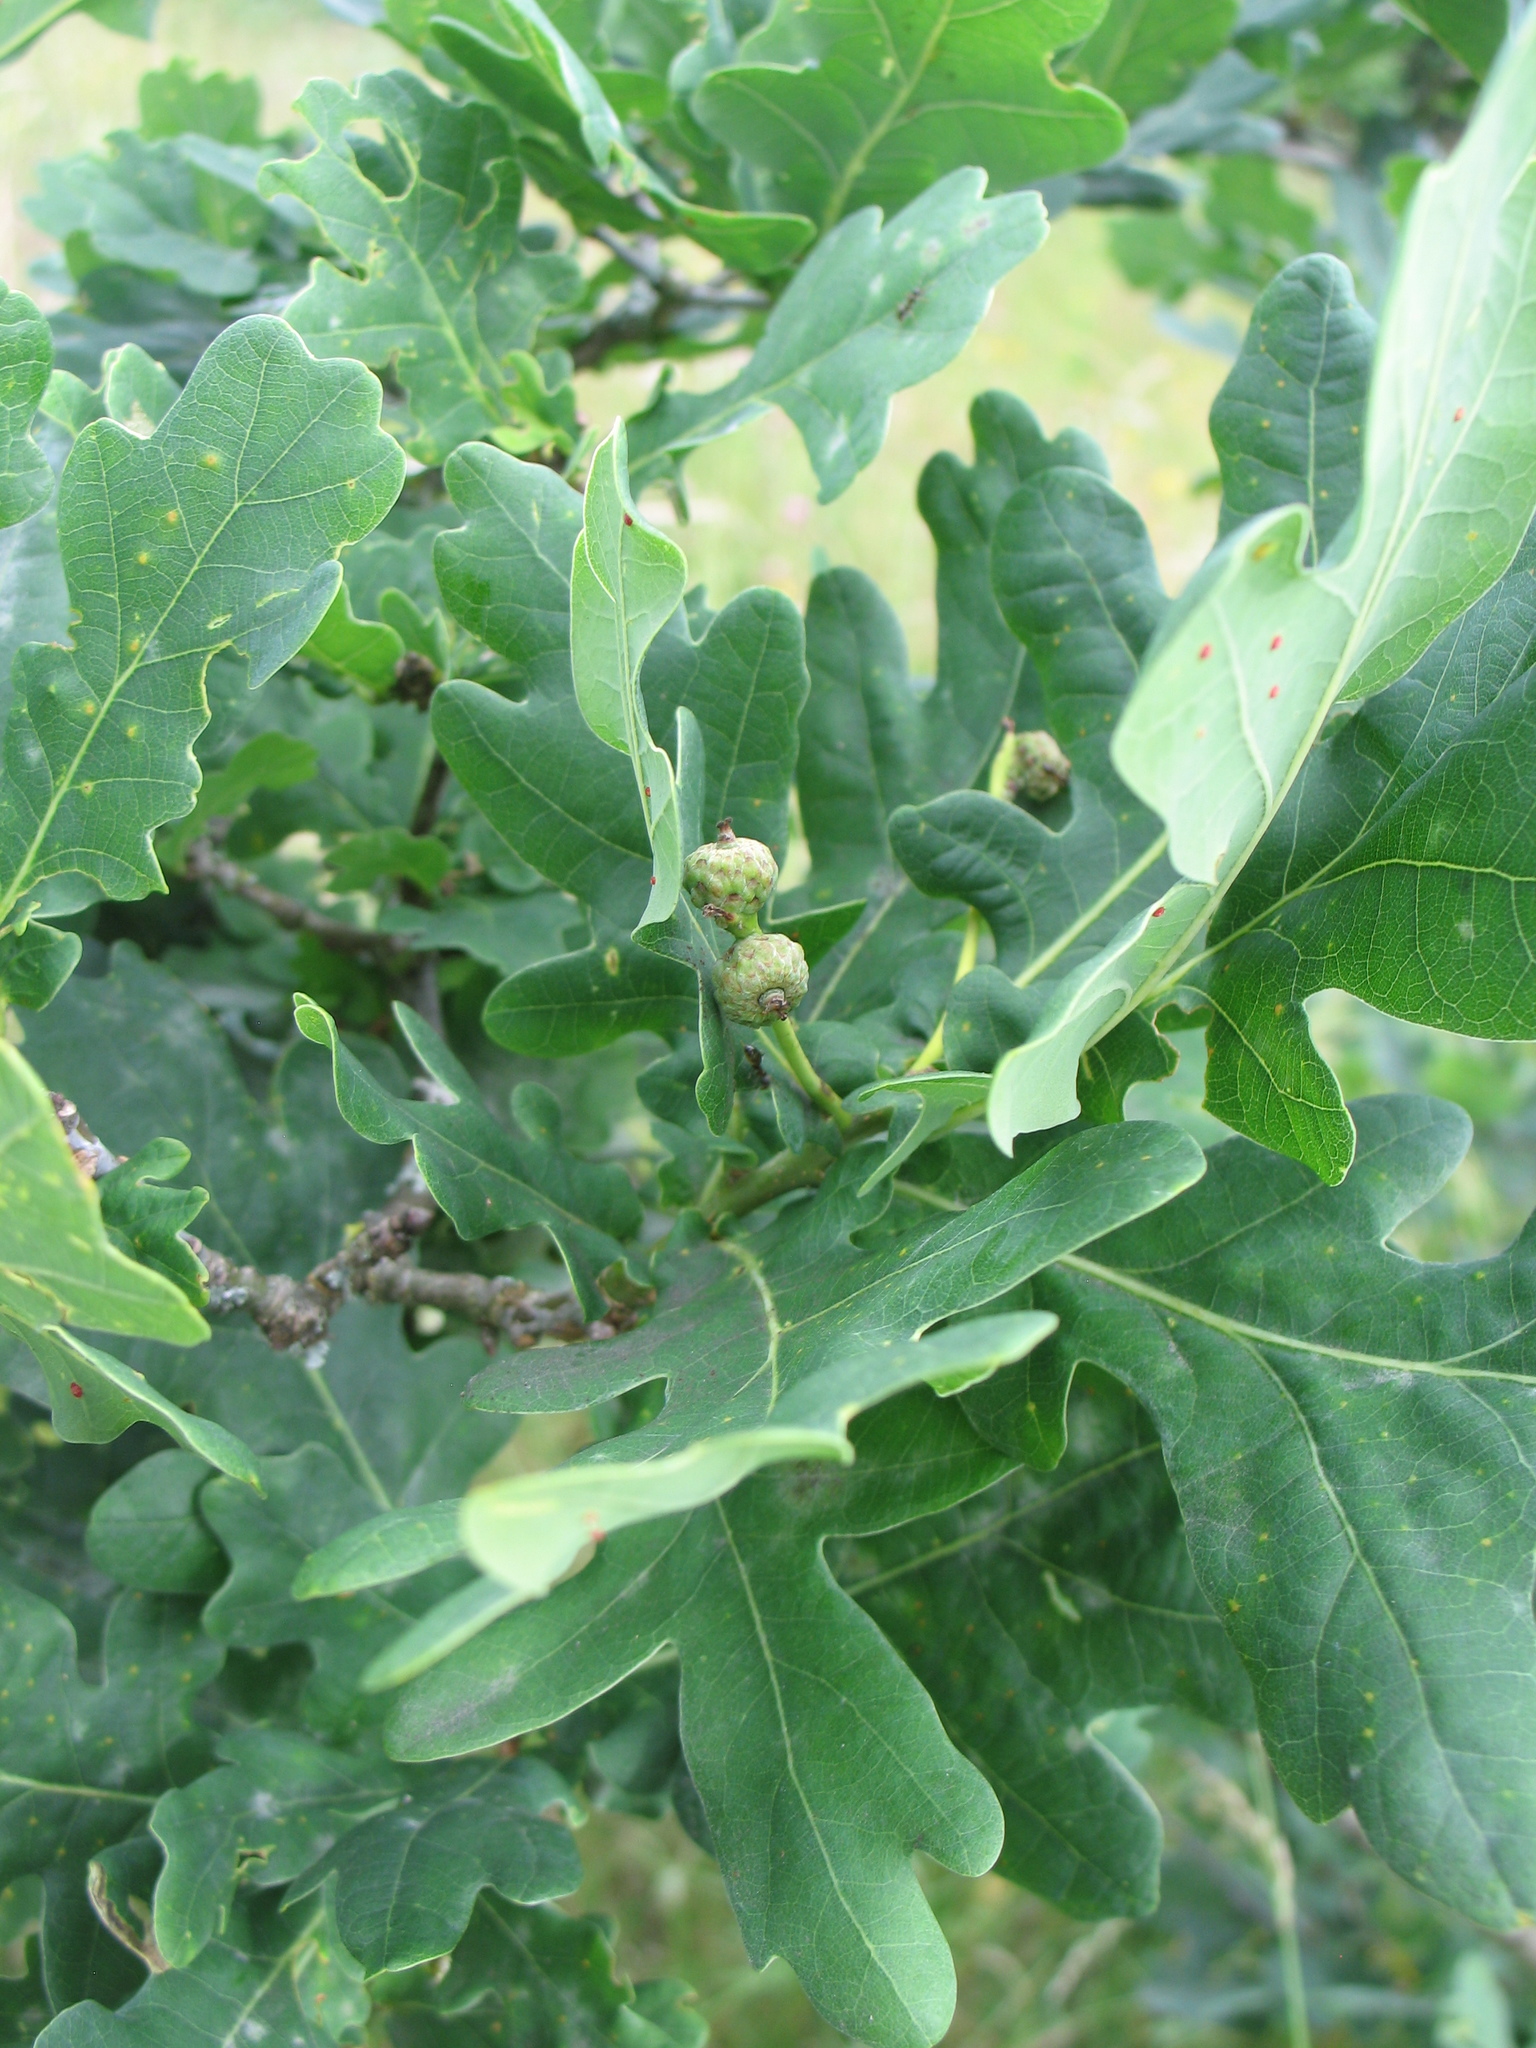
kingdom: Plantae
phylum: Tracheophyta
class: Magnoliopsida
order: Fagales
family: Fagaceae
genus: Quercus
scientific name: Quercus robur
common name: Pedunculate oak
